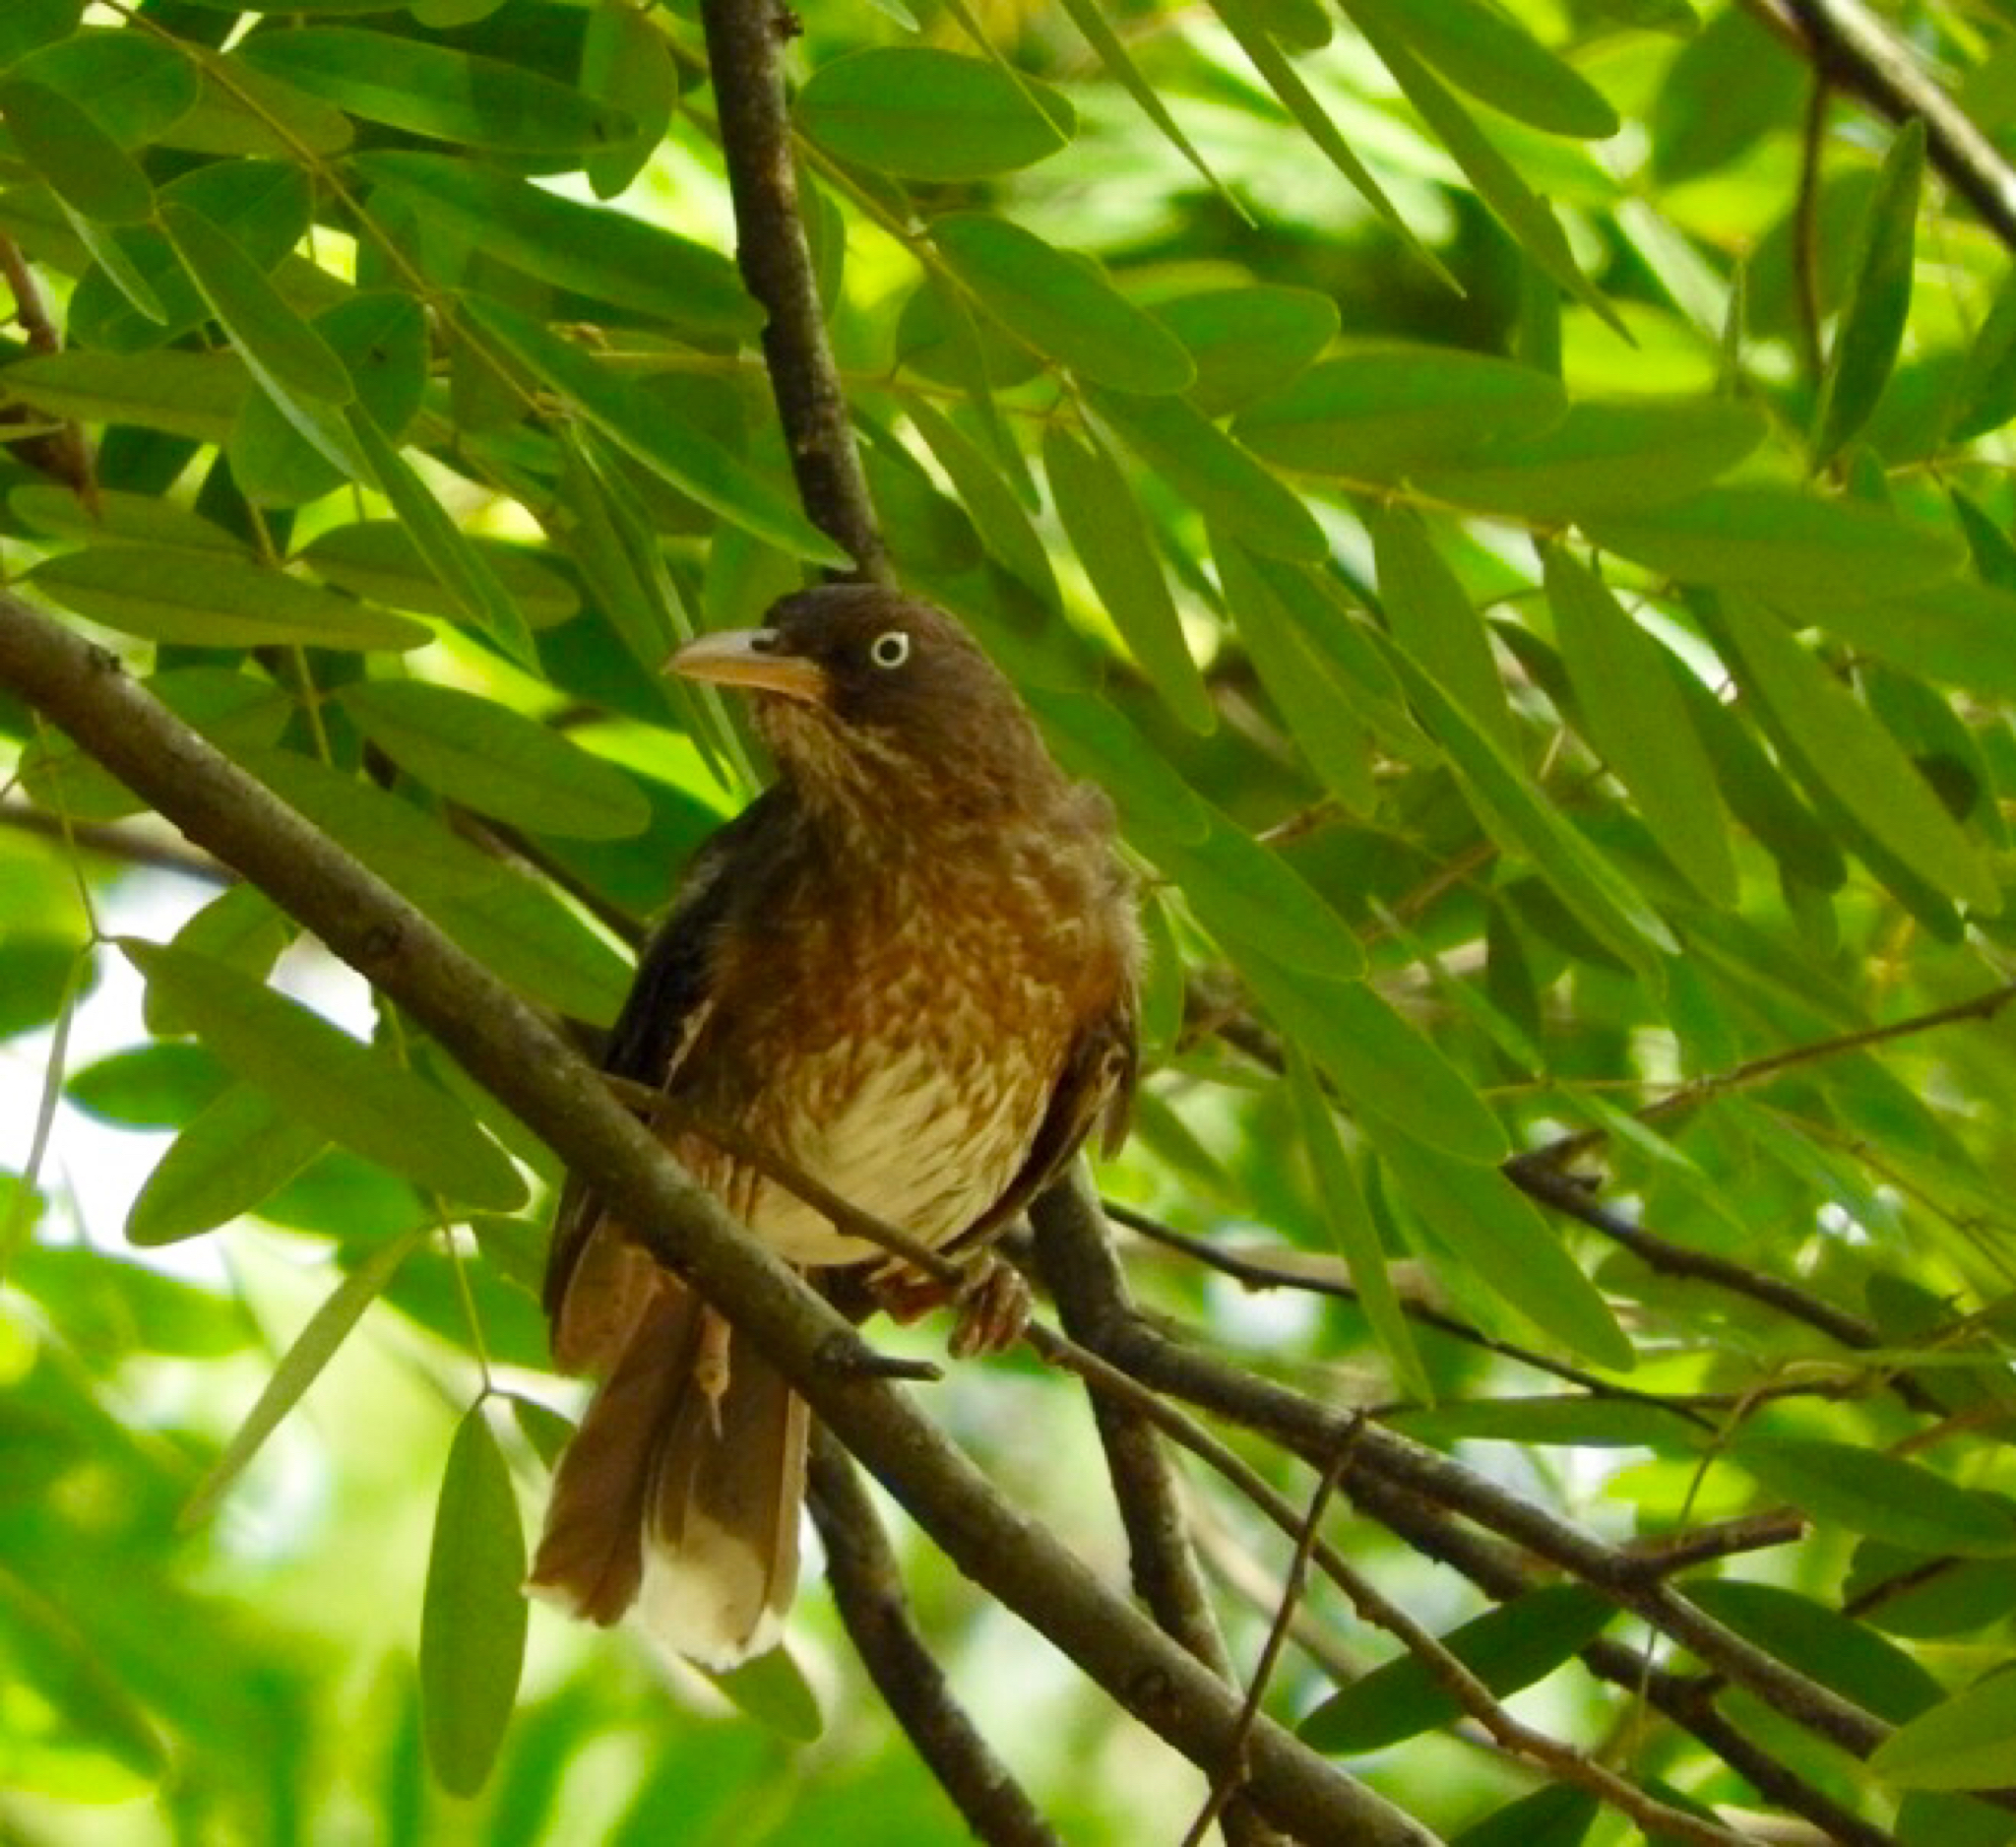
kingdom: Animalia
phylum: Chordata
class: Aves
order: Passeriformes
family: Mimidae
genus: Margarops
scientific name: Margarops fuscatus
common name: Pearly-eyed thrasher
